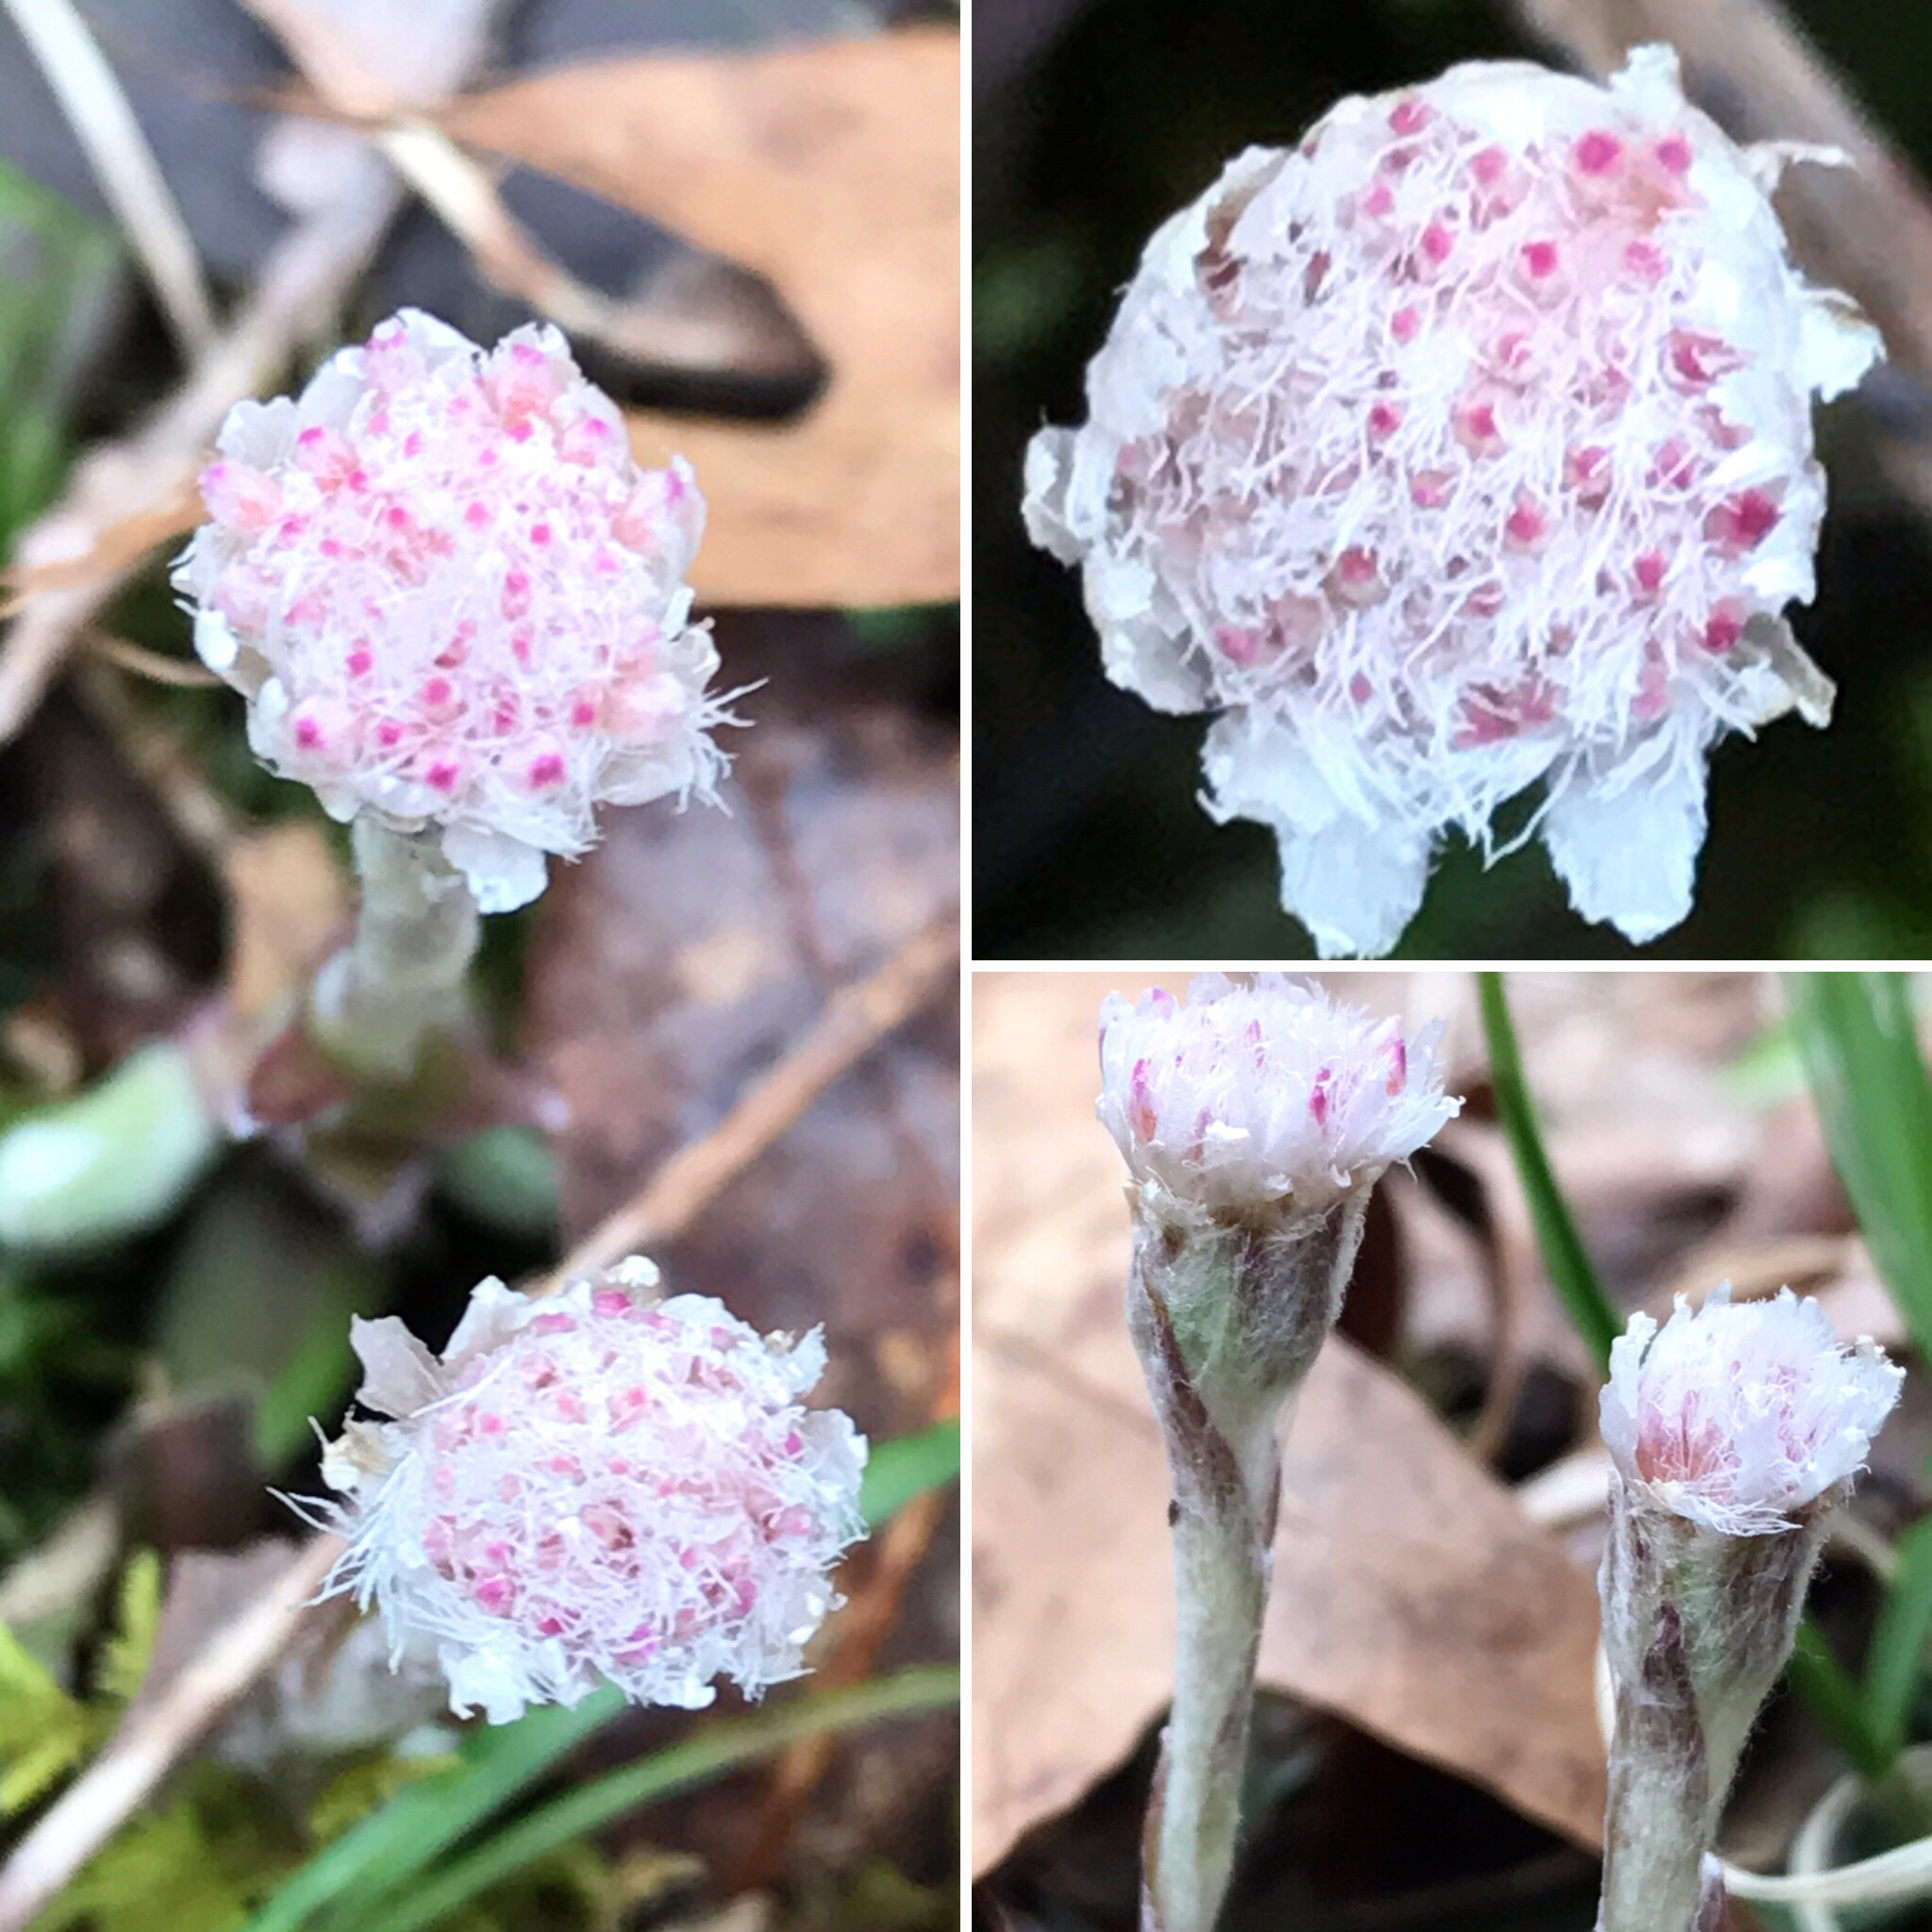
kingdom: Plantae
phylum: Tracheophyta
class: Magnoliopsida
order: Asterales
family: Asteraceae
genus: Antennaria
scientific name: Antennaria solitaria
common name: Single-head pussytoes
